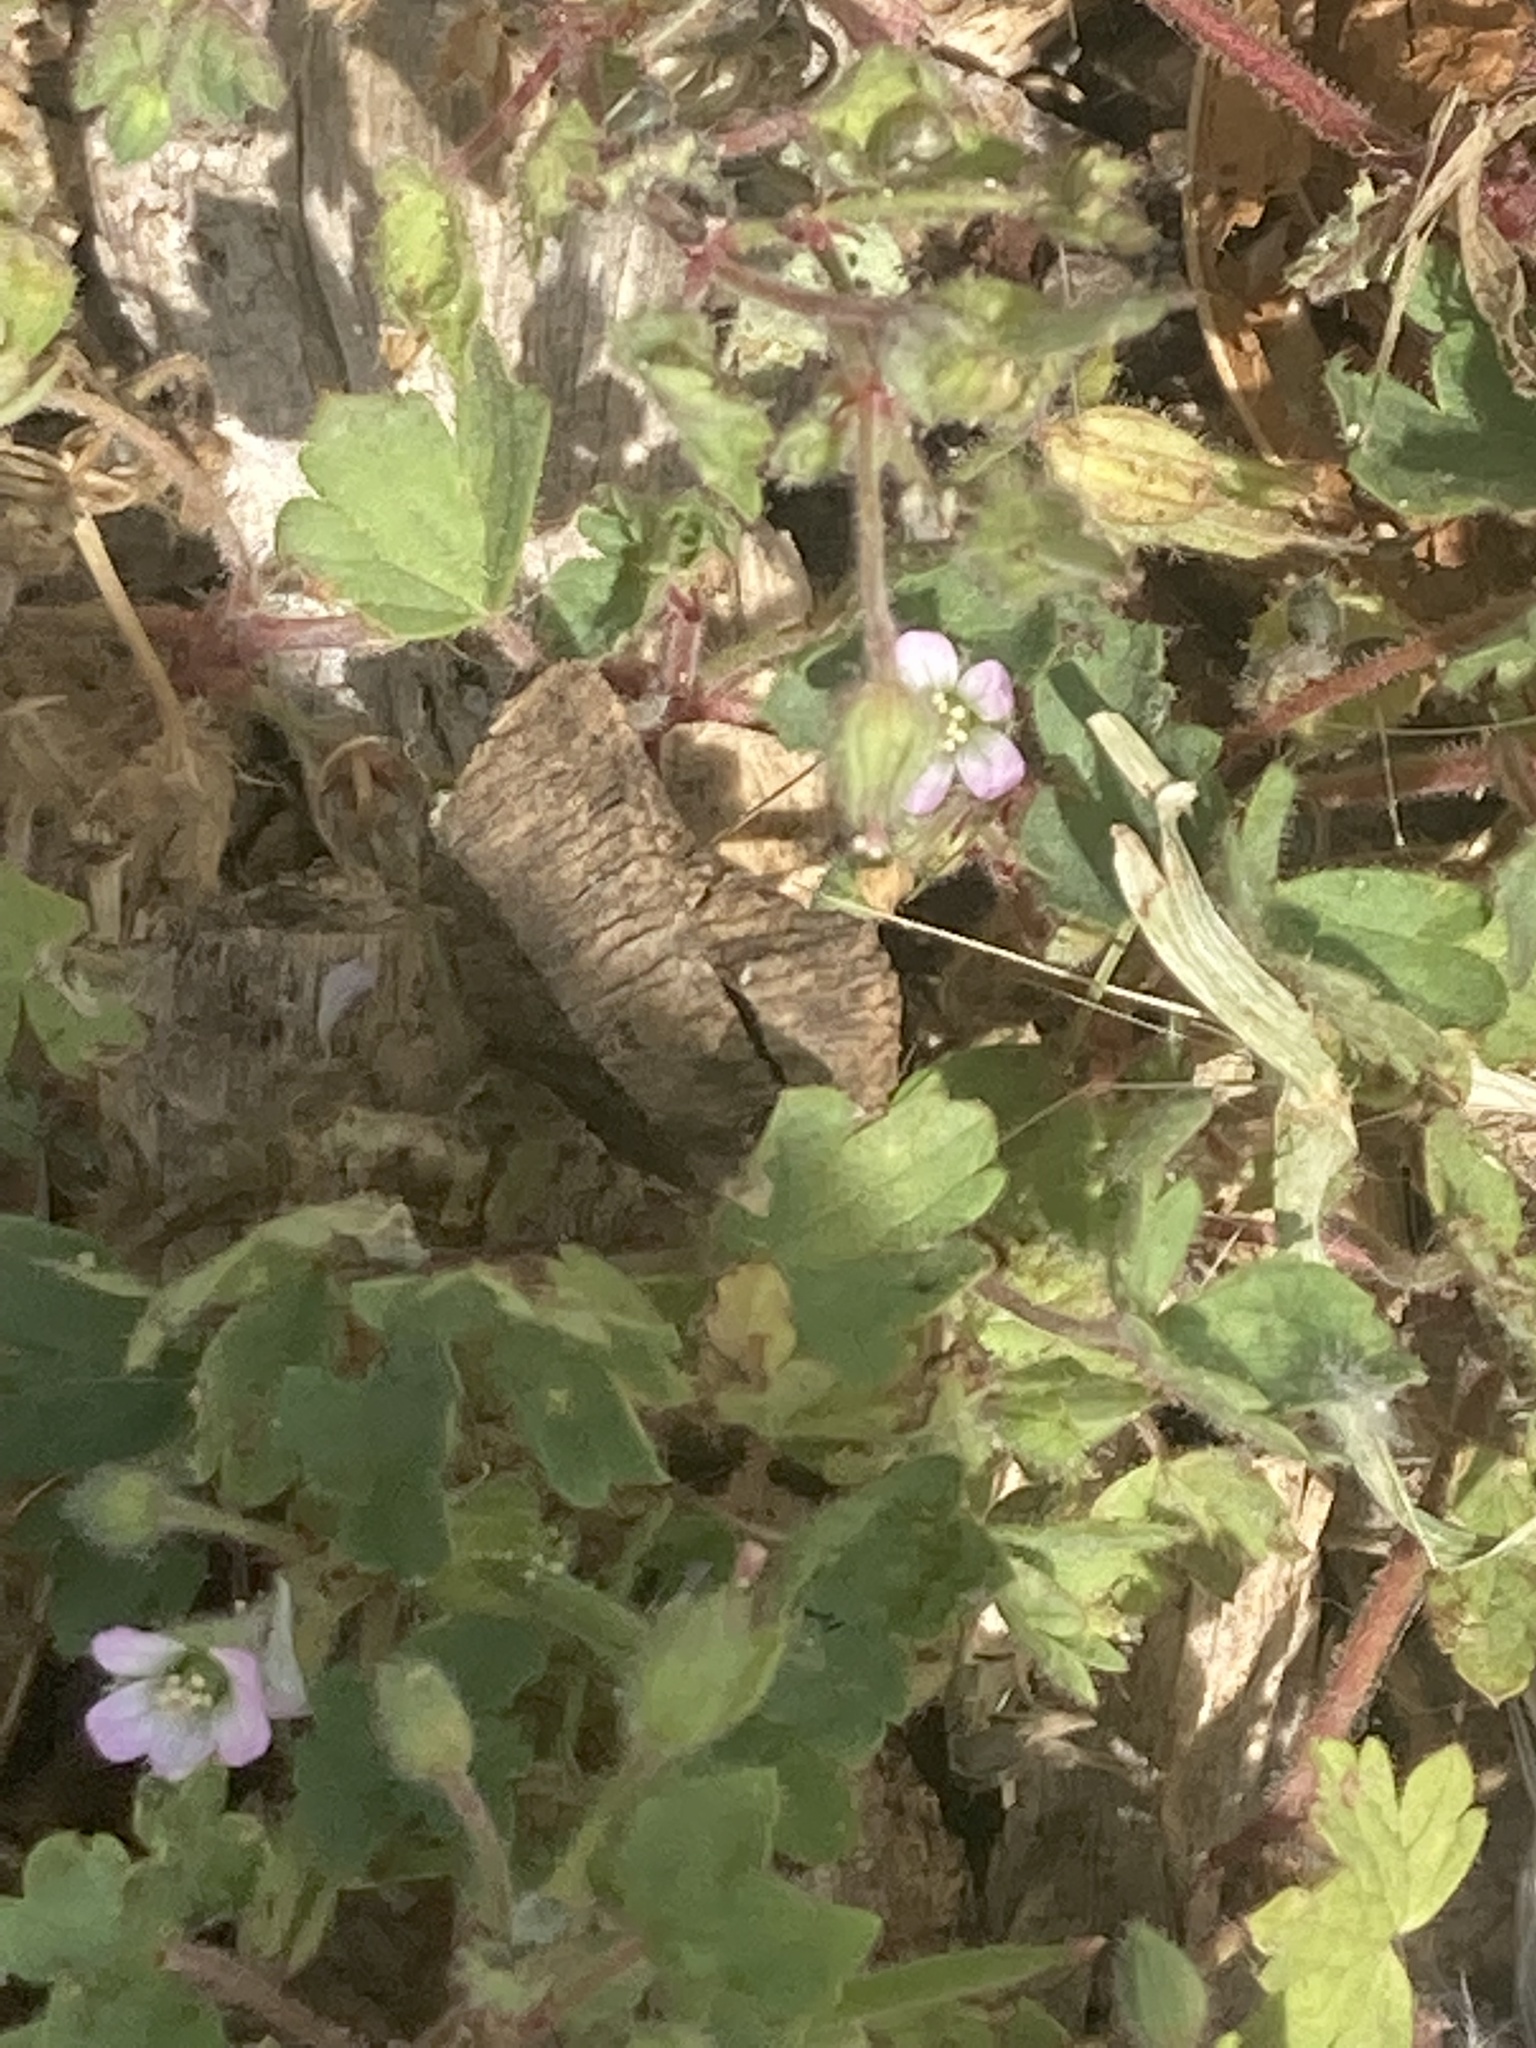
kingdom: Plantae
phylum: Tracheophyta
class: Magnoliopsida
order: Geraniales
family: Geraniaceae
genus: Geranium
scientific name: Geranium rotundifolium
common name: Round-leaved crane's-bill
